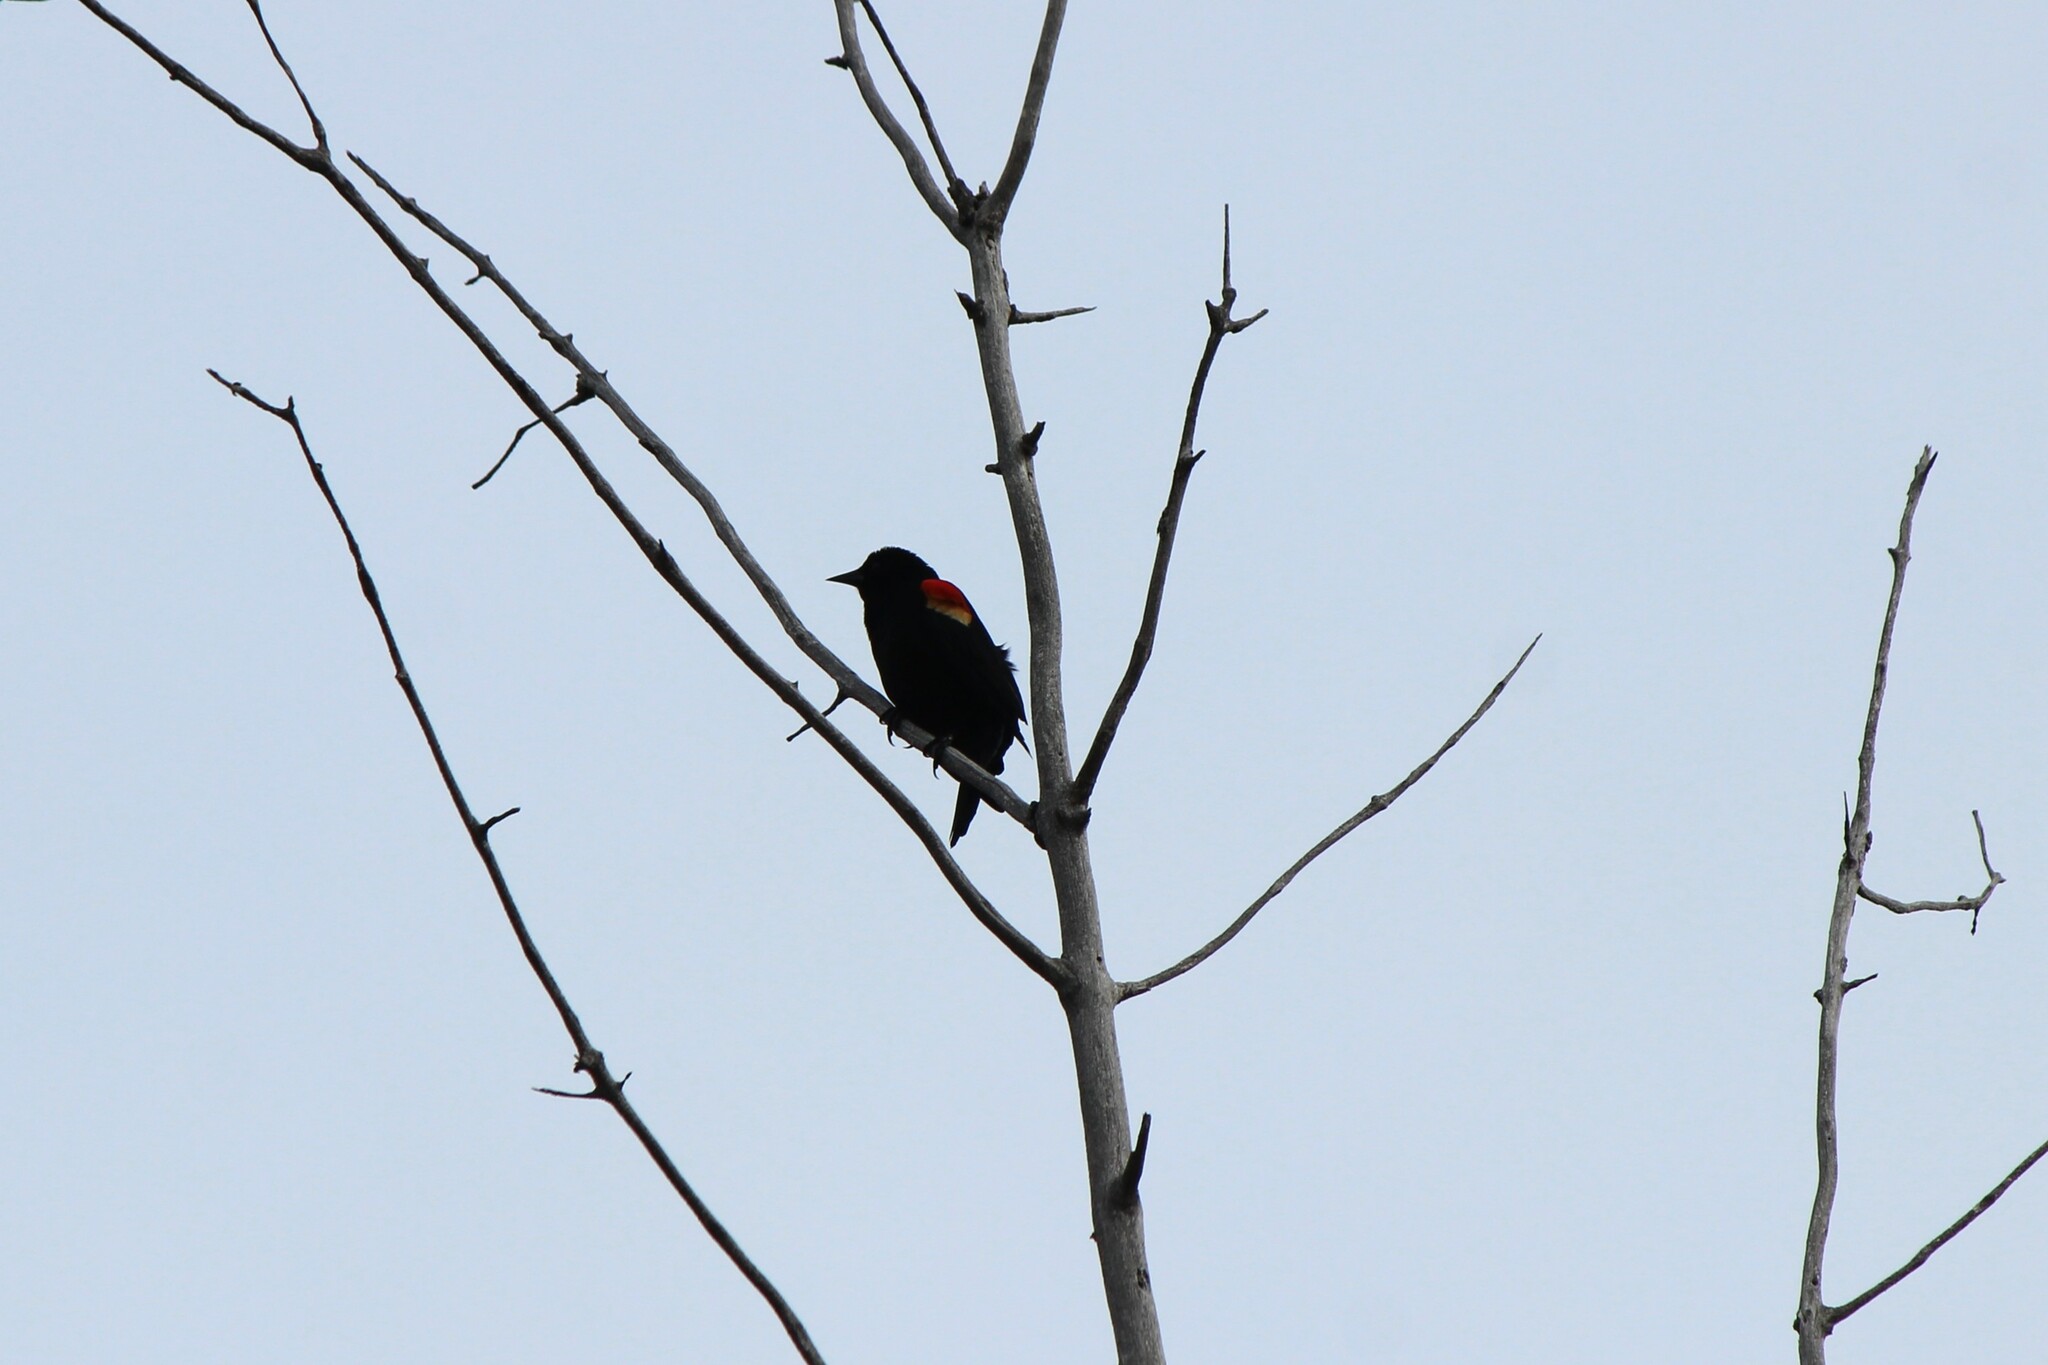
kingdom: Animalia
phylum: Chordata
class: Aves
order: Passeriformes
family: Icteridae
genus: Agelaius
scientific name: Agelaius phoeniceus
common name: Red-winged blackbird
